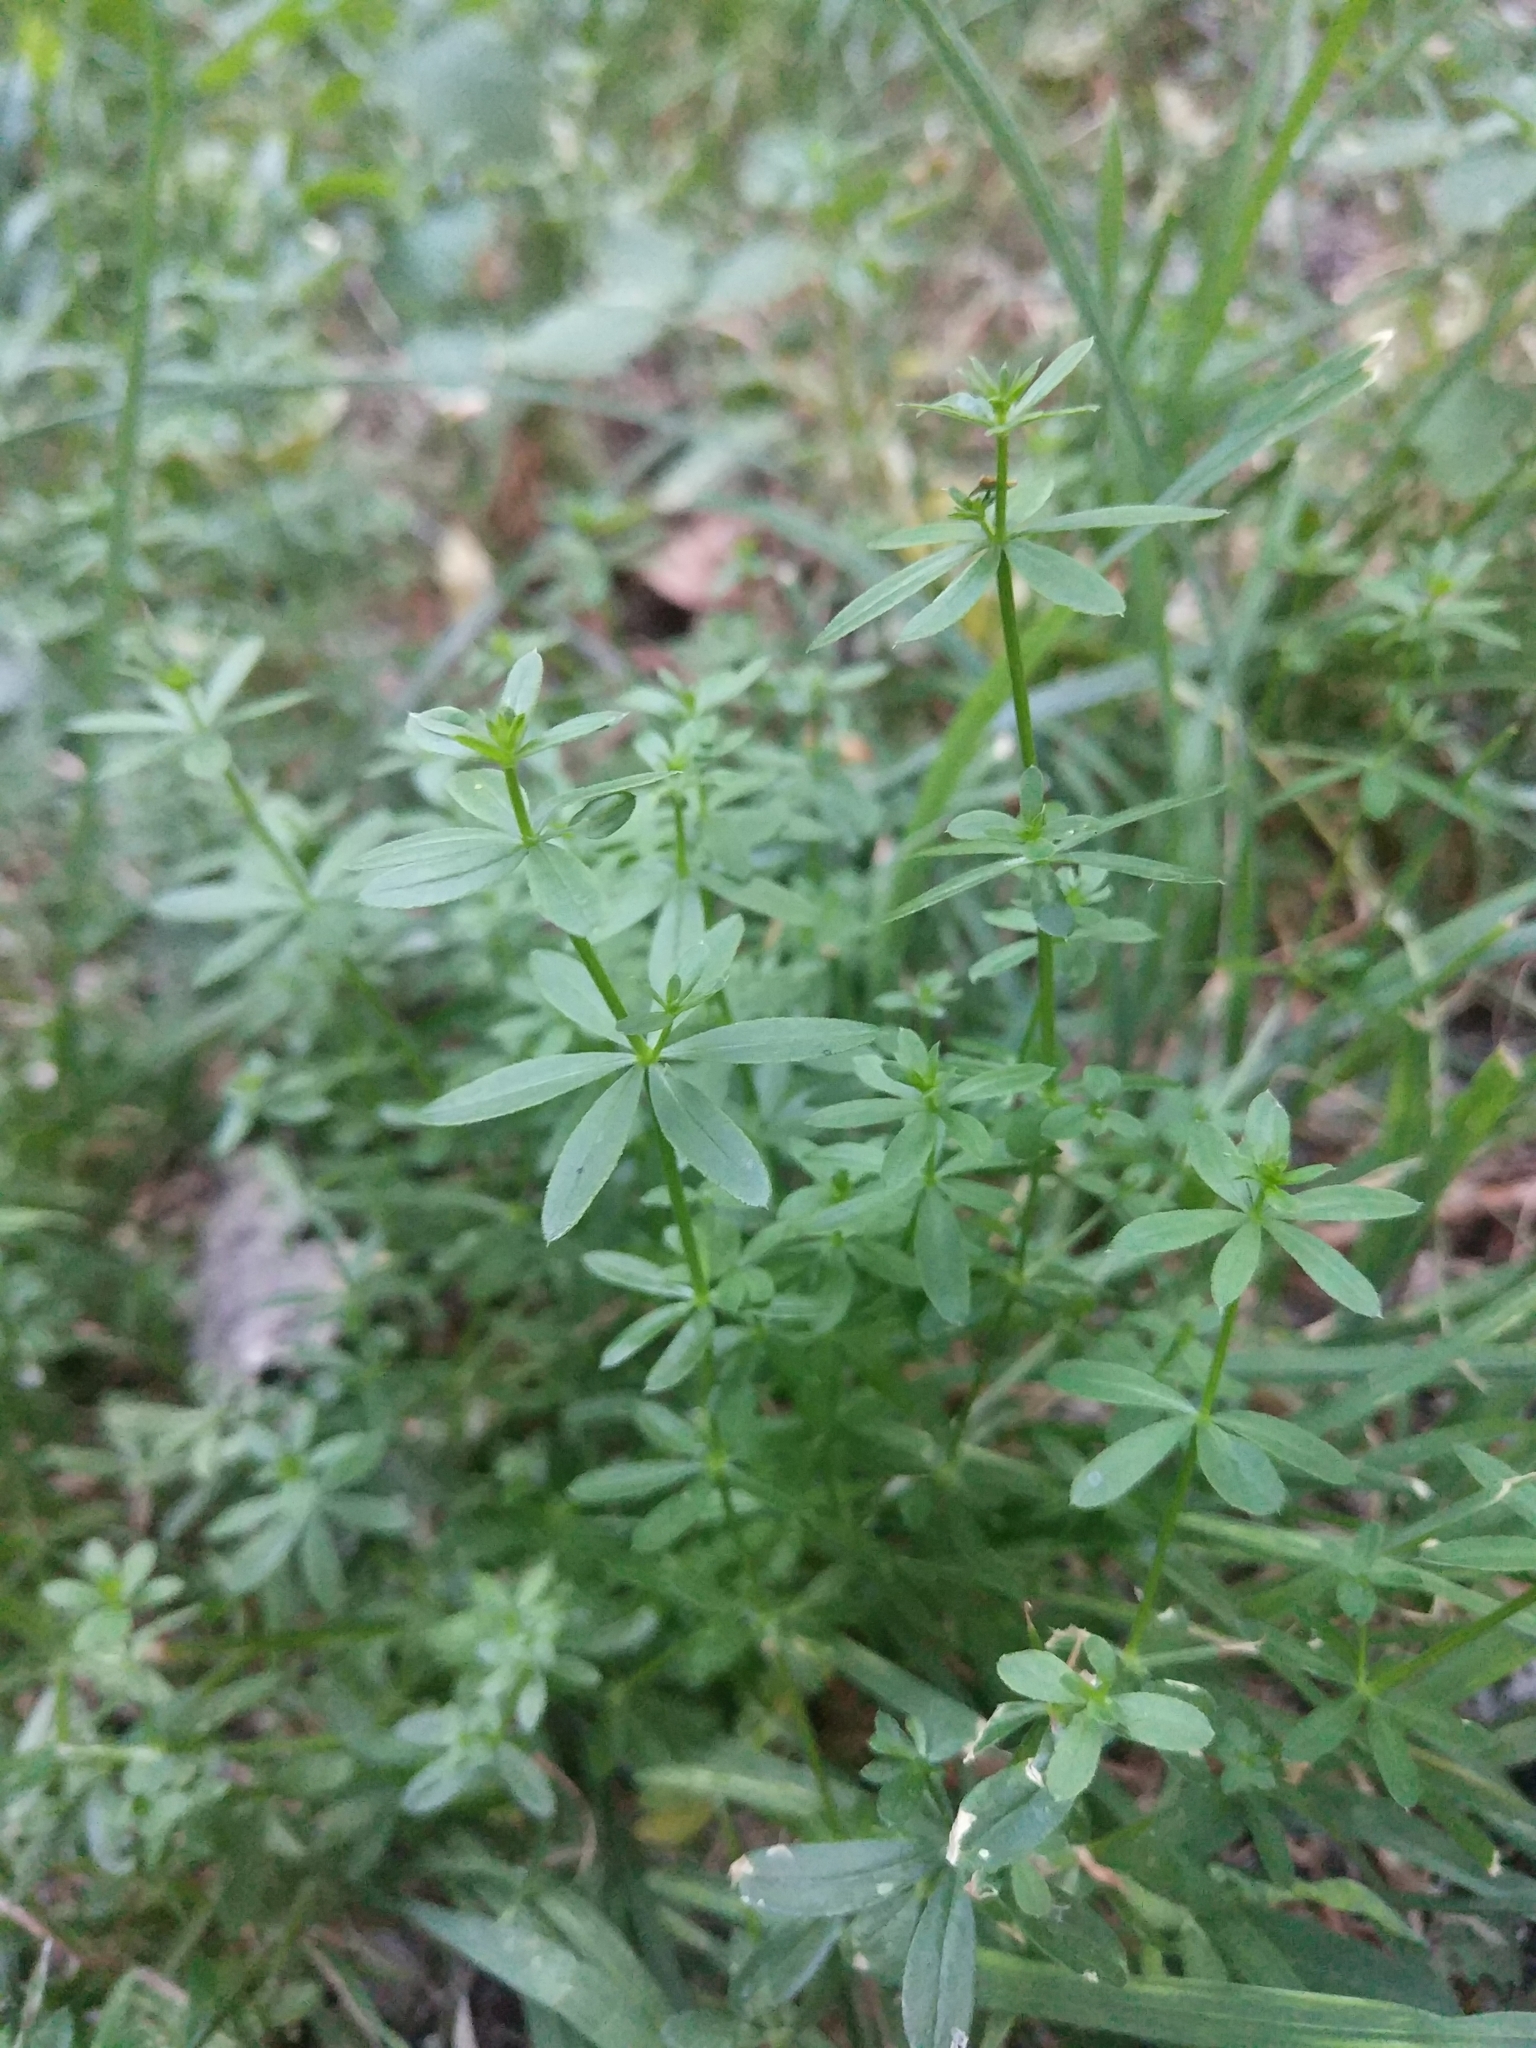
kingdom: Plantae
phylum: Tracheophyta
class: Magnoliopsida
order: Gentianales
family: Rubiaceae
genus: Galium
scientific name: Galium mollugo
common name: Hedge bedstraw
